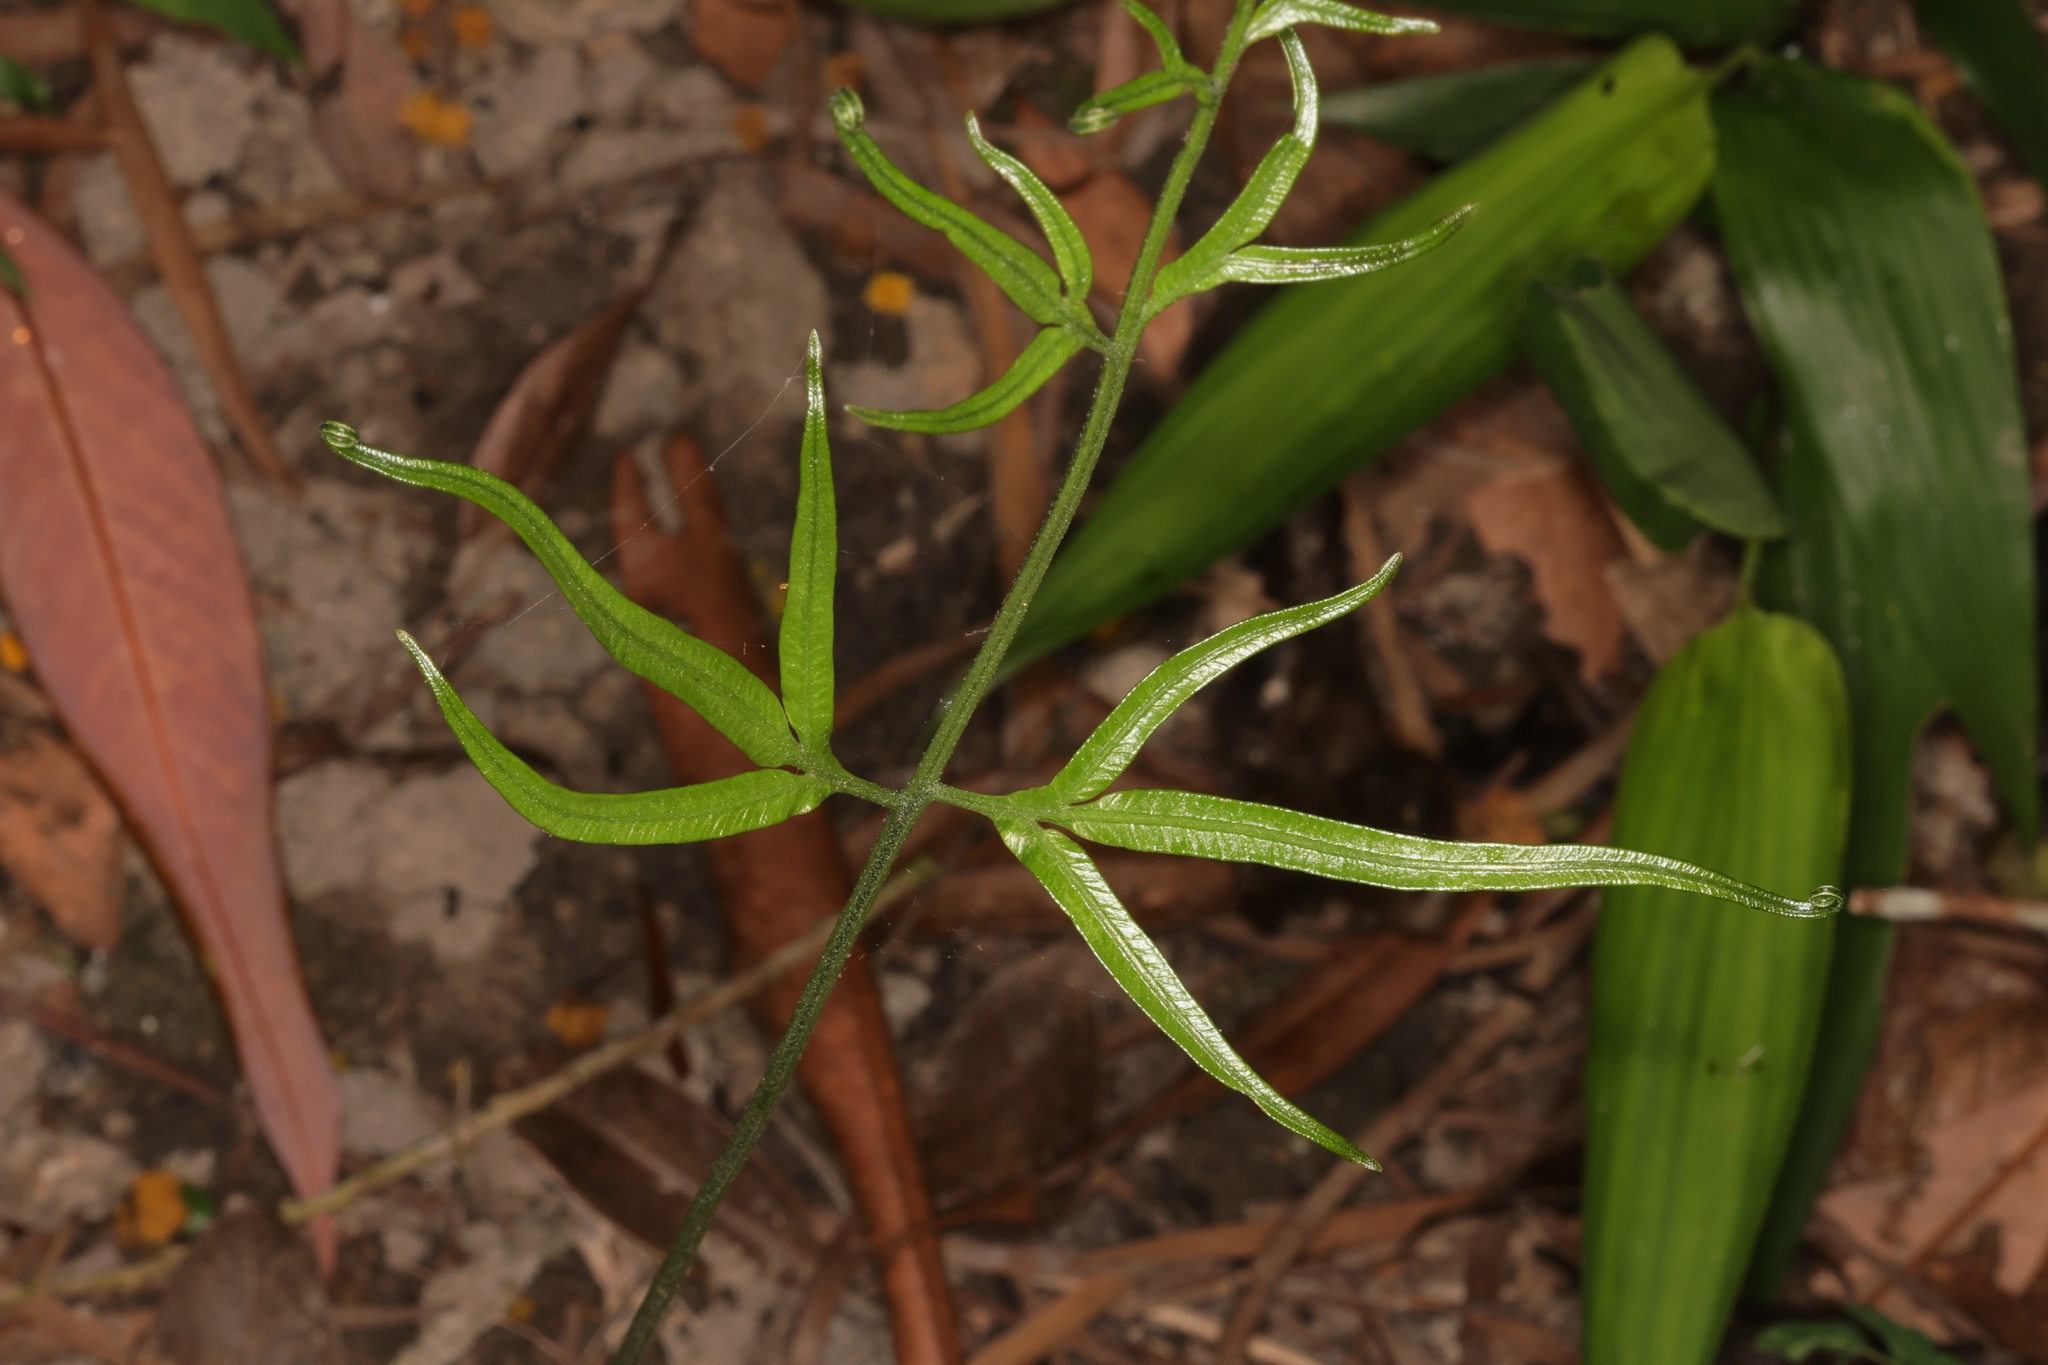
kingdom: Plantae
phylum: Tracheophyta
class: Polypodiopsida
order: Polypodiales
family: Pteridaceae
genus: Pteris
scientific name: Pteris ensiformis
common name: Sword brake
